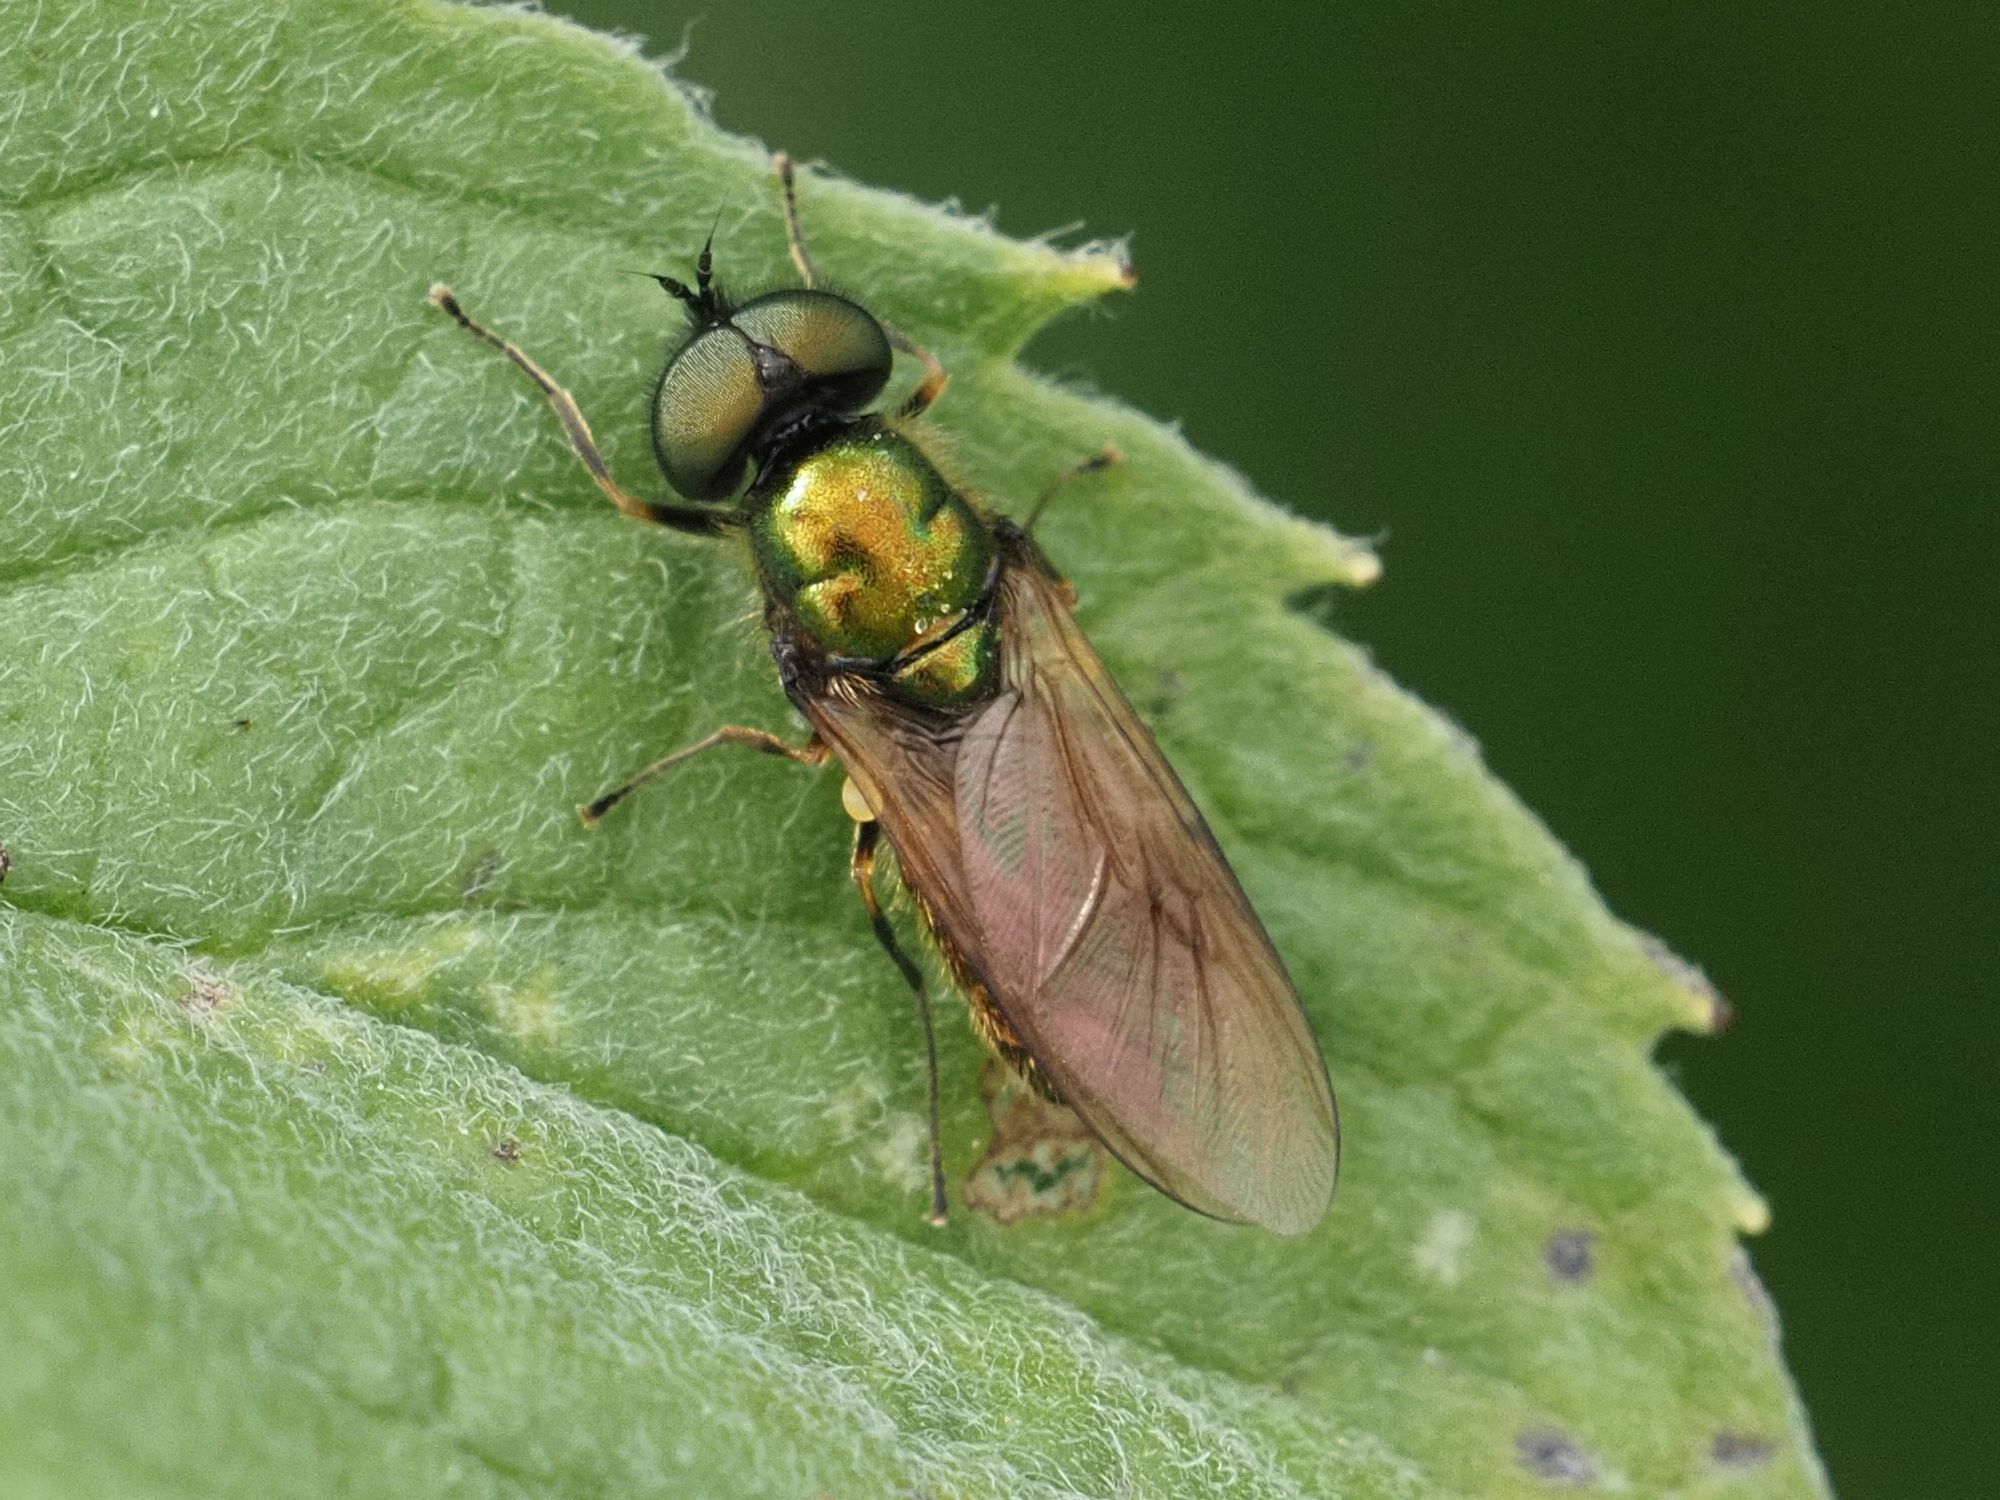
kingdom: Animalia
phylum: Arthropoda
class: Insecta
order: Diptera
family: Stratiomyidae
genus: Chloromyia
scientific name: Chloromyia formosa
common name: Soldier fly
